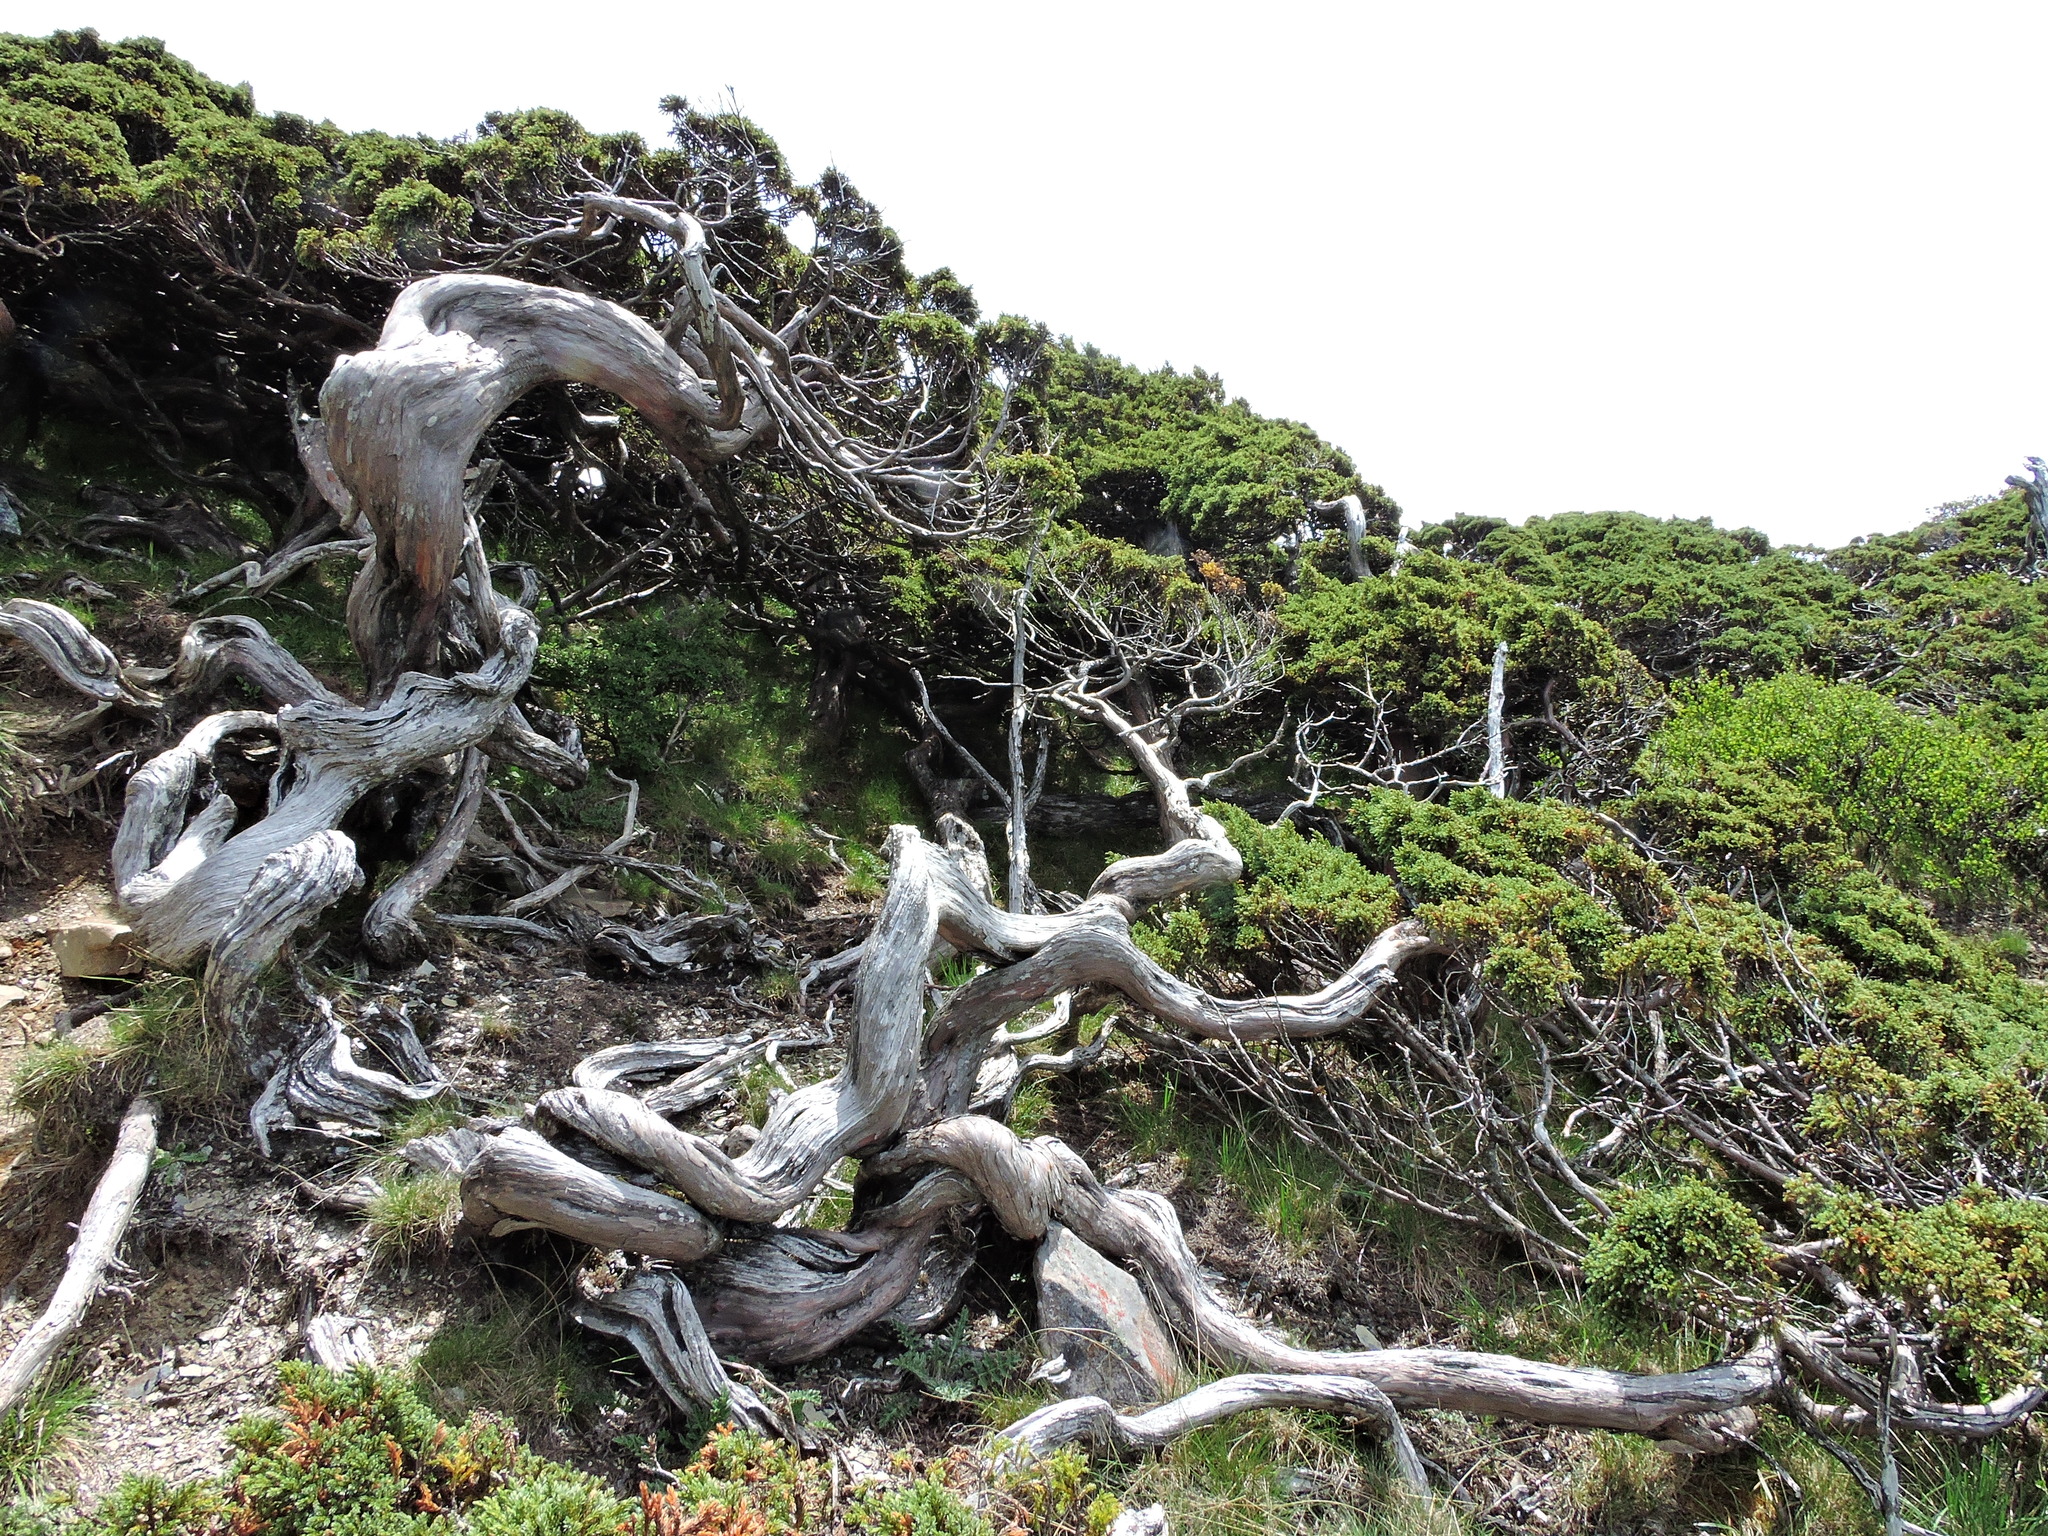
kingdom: Plantae
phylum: Tracheophyta
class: Pinopsida
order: Pinales
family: Cupressaceae
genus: Juniperus
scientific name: Juniperus squamata
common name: Flaky juniper
